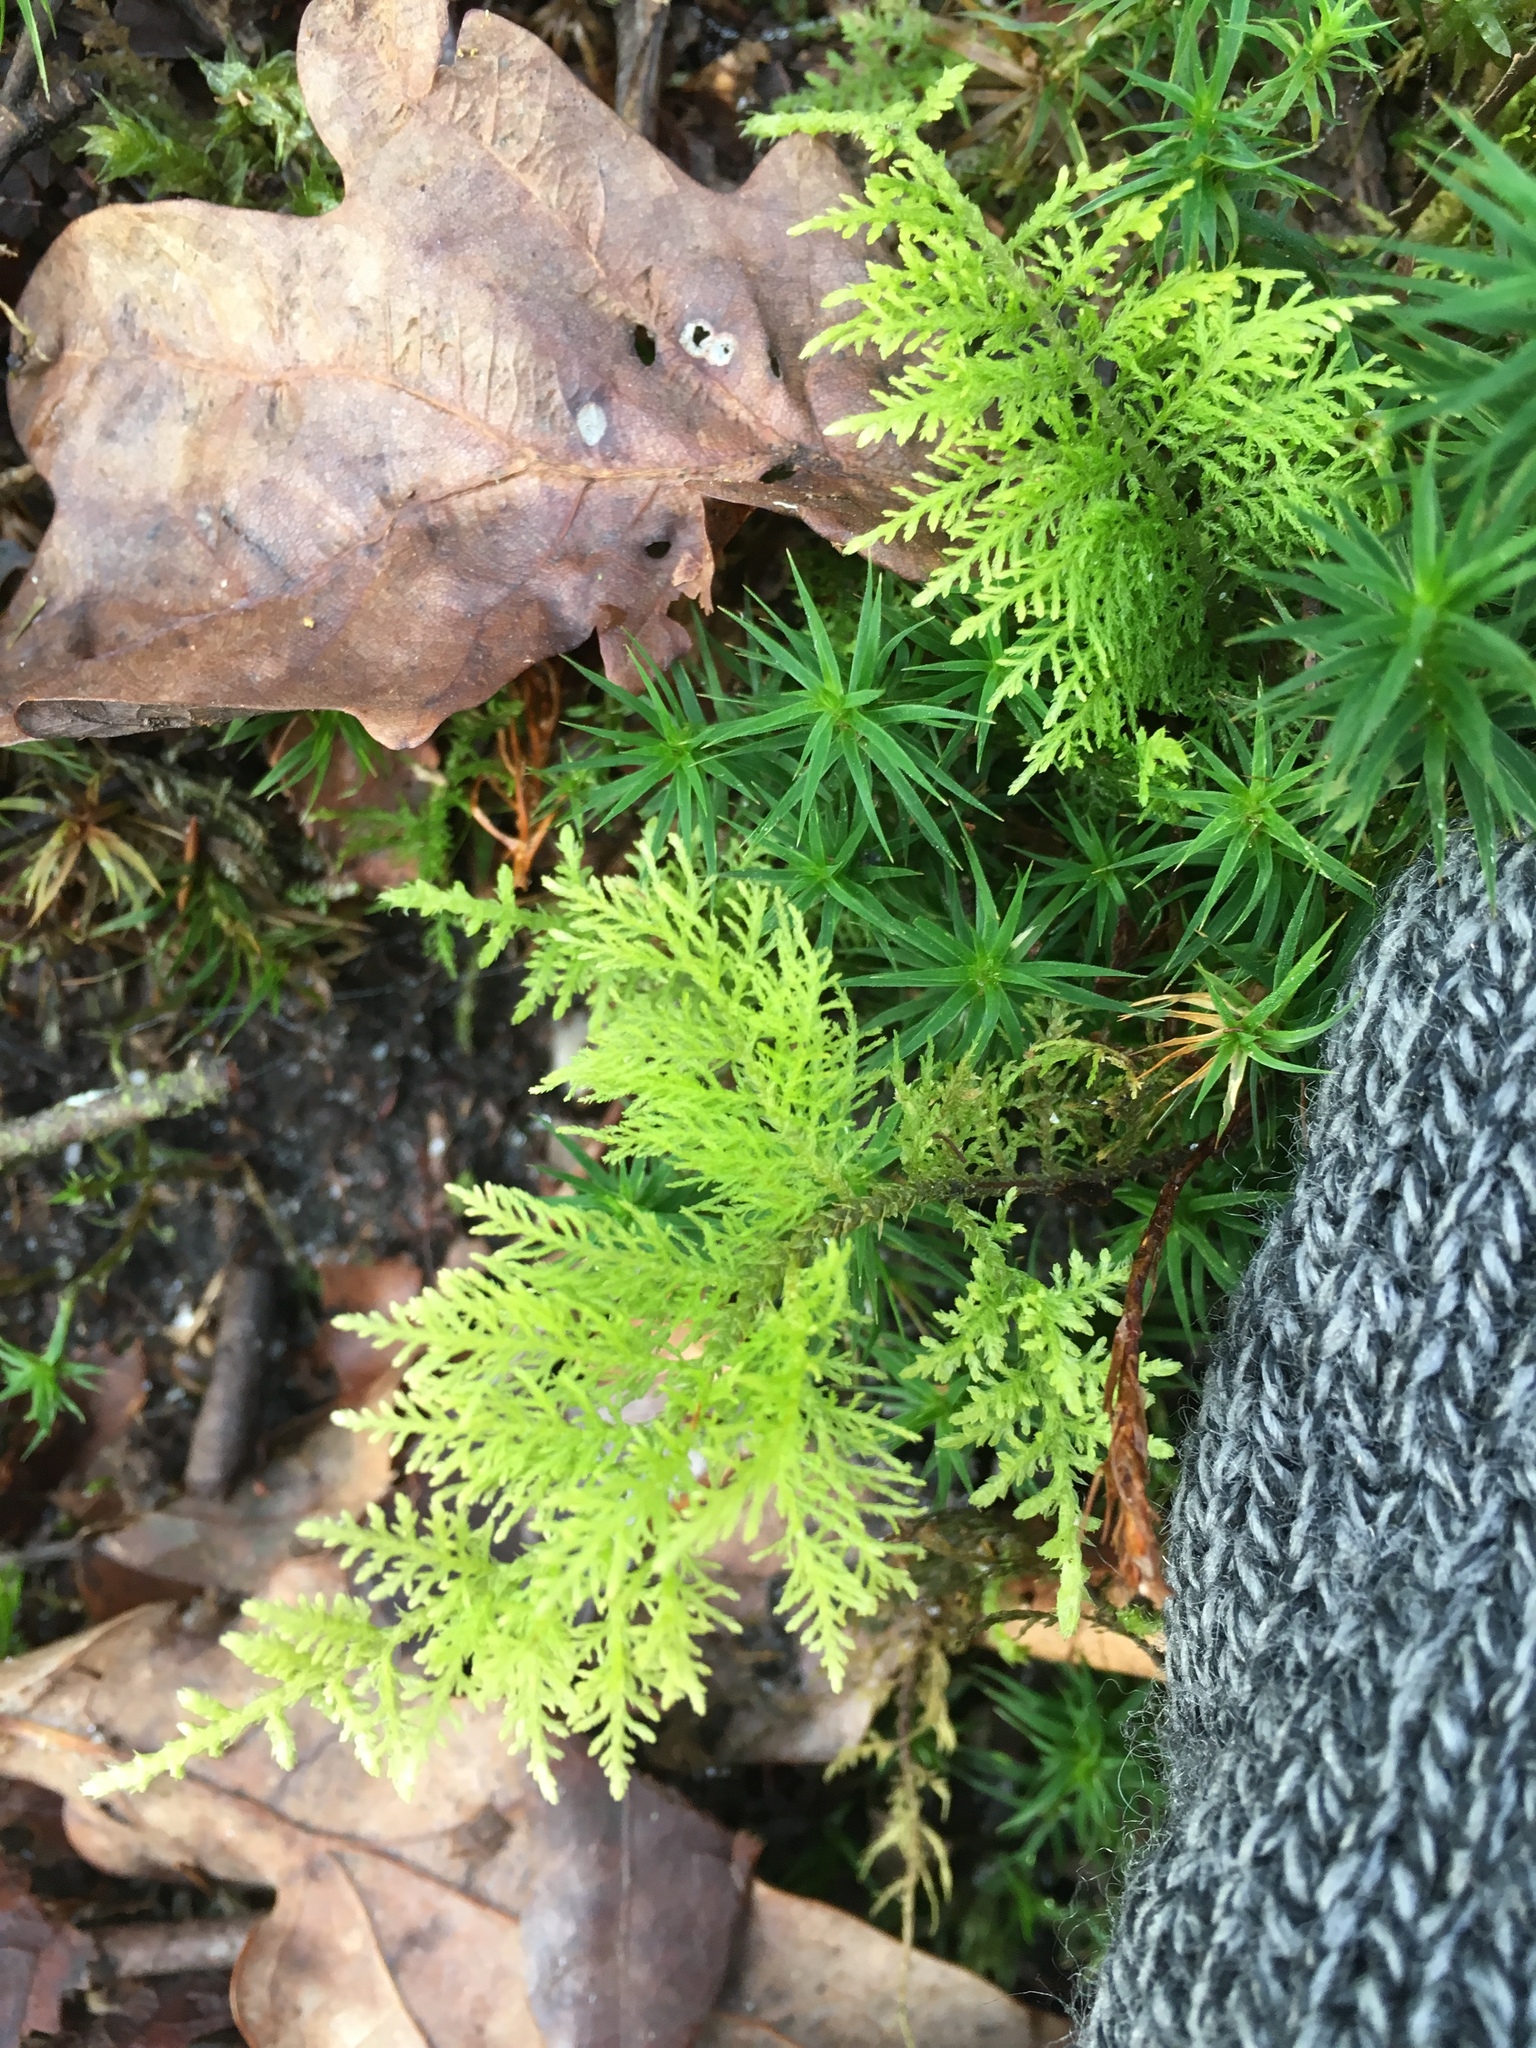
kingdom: Plantae
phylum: Bryophyta
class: Bryopsida
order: Hypnales
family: Thuidiaceae
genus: Thuidium
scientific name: Thuidium tamariscinum
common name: Common tamarisk-moss
